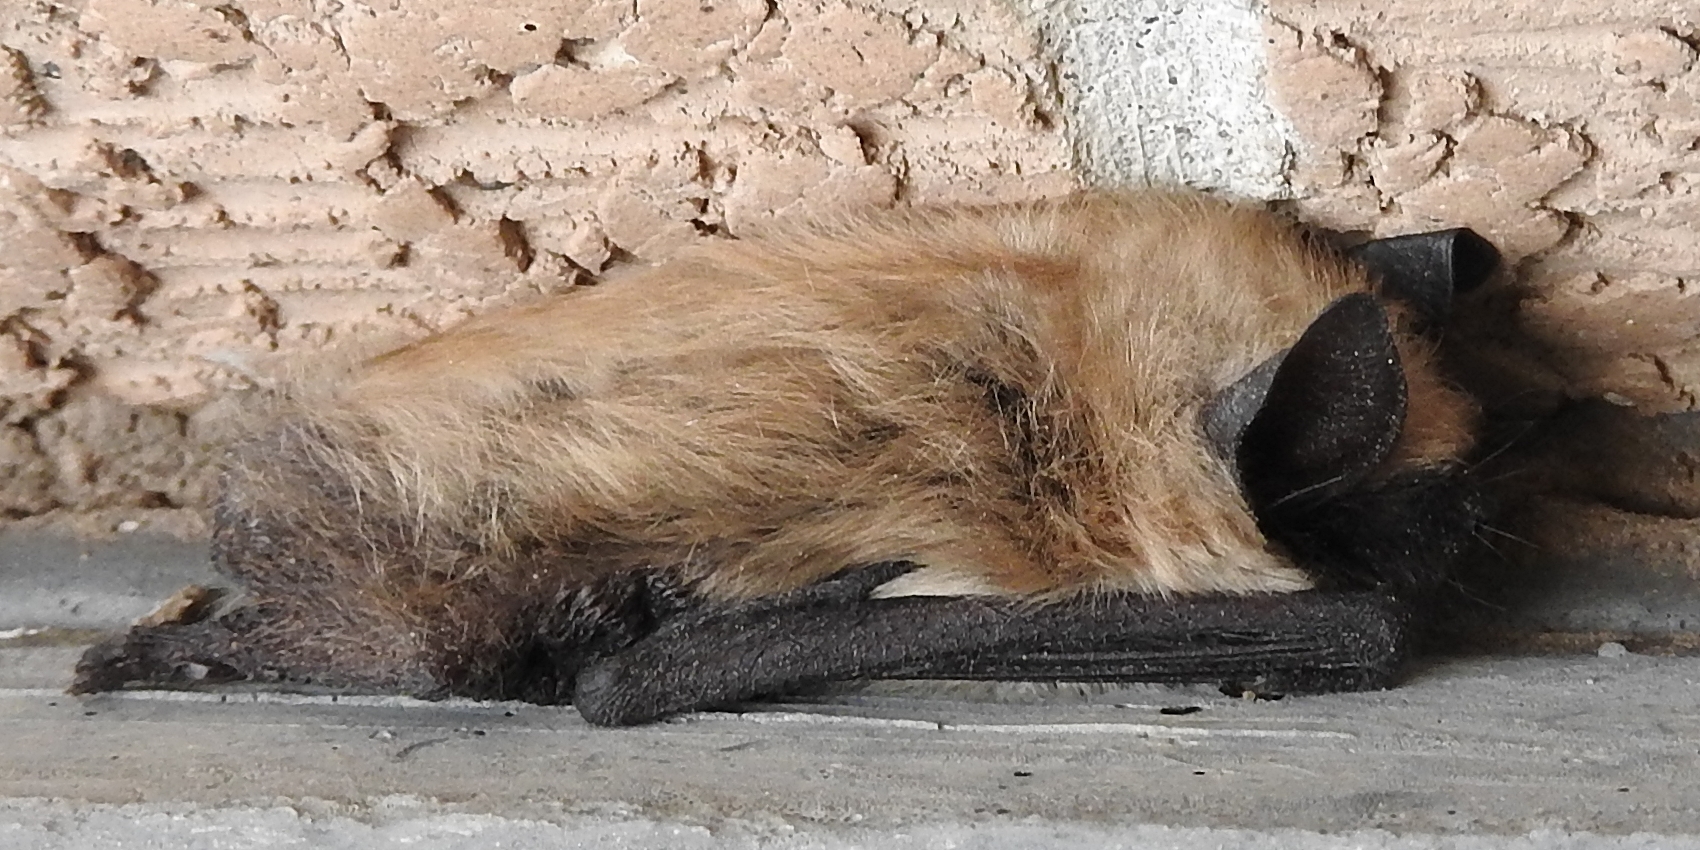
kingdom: Animalia
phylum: Chordata
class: Mammalia
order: Chiroptera
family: Vespertilionidae
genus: Myotis
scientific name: Myotis ciliolabrum
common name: Western small-footed myotis
